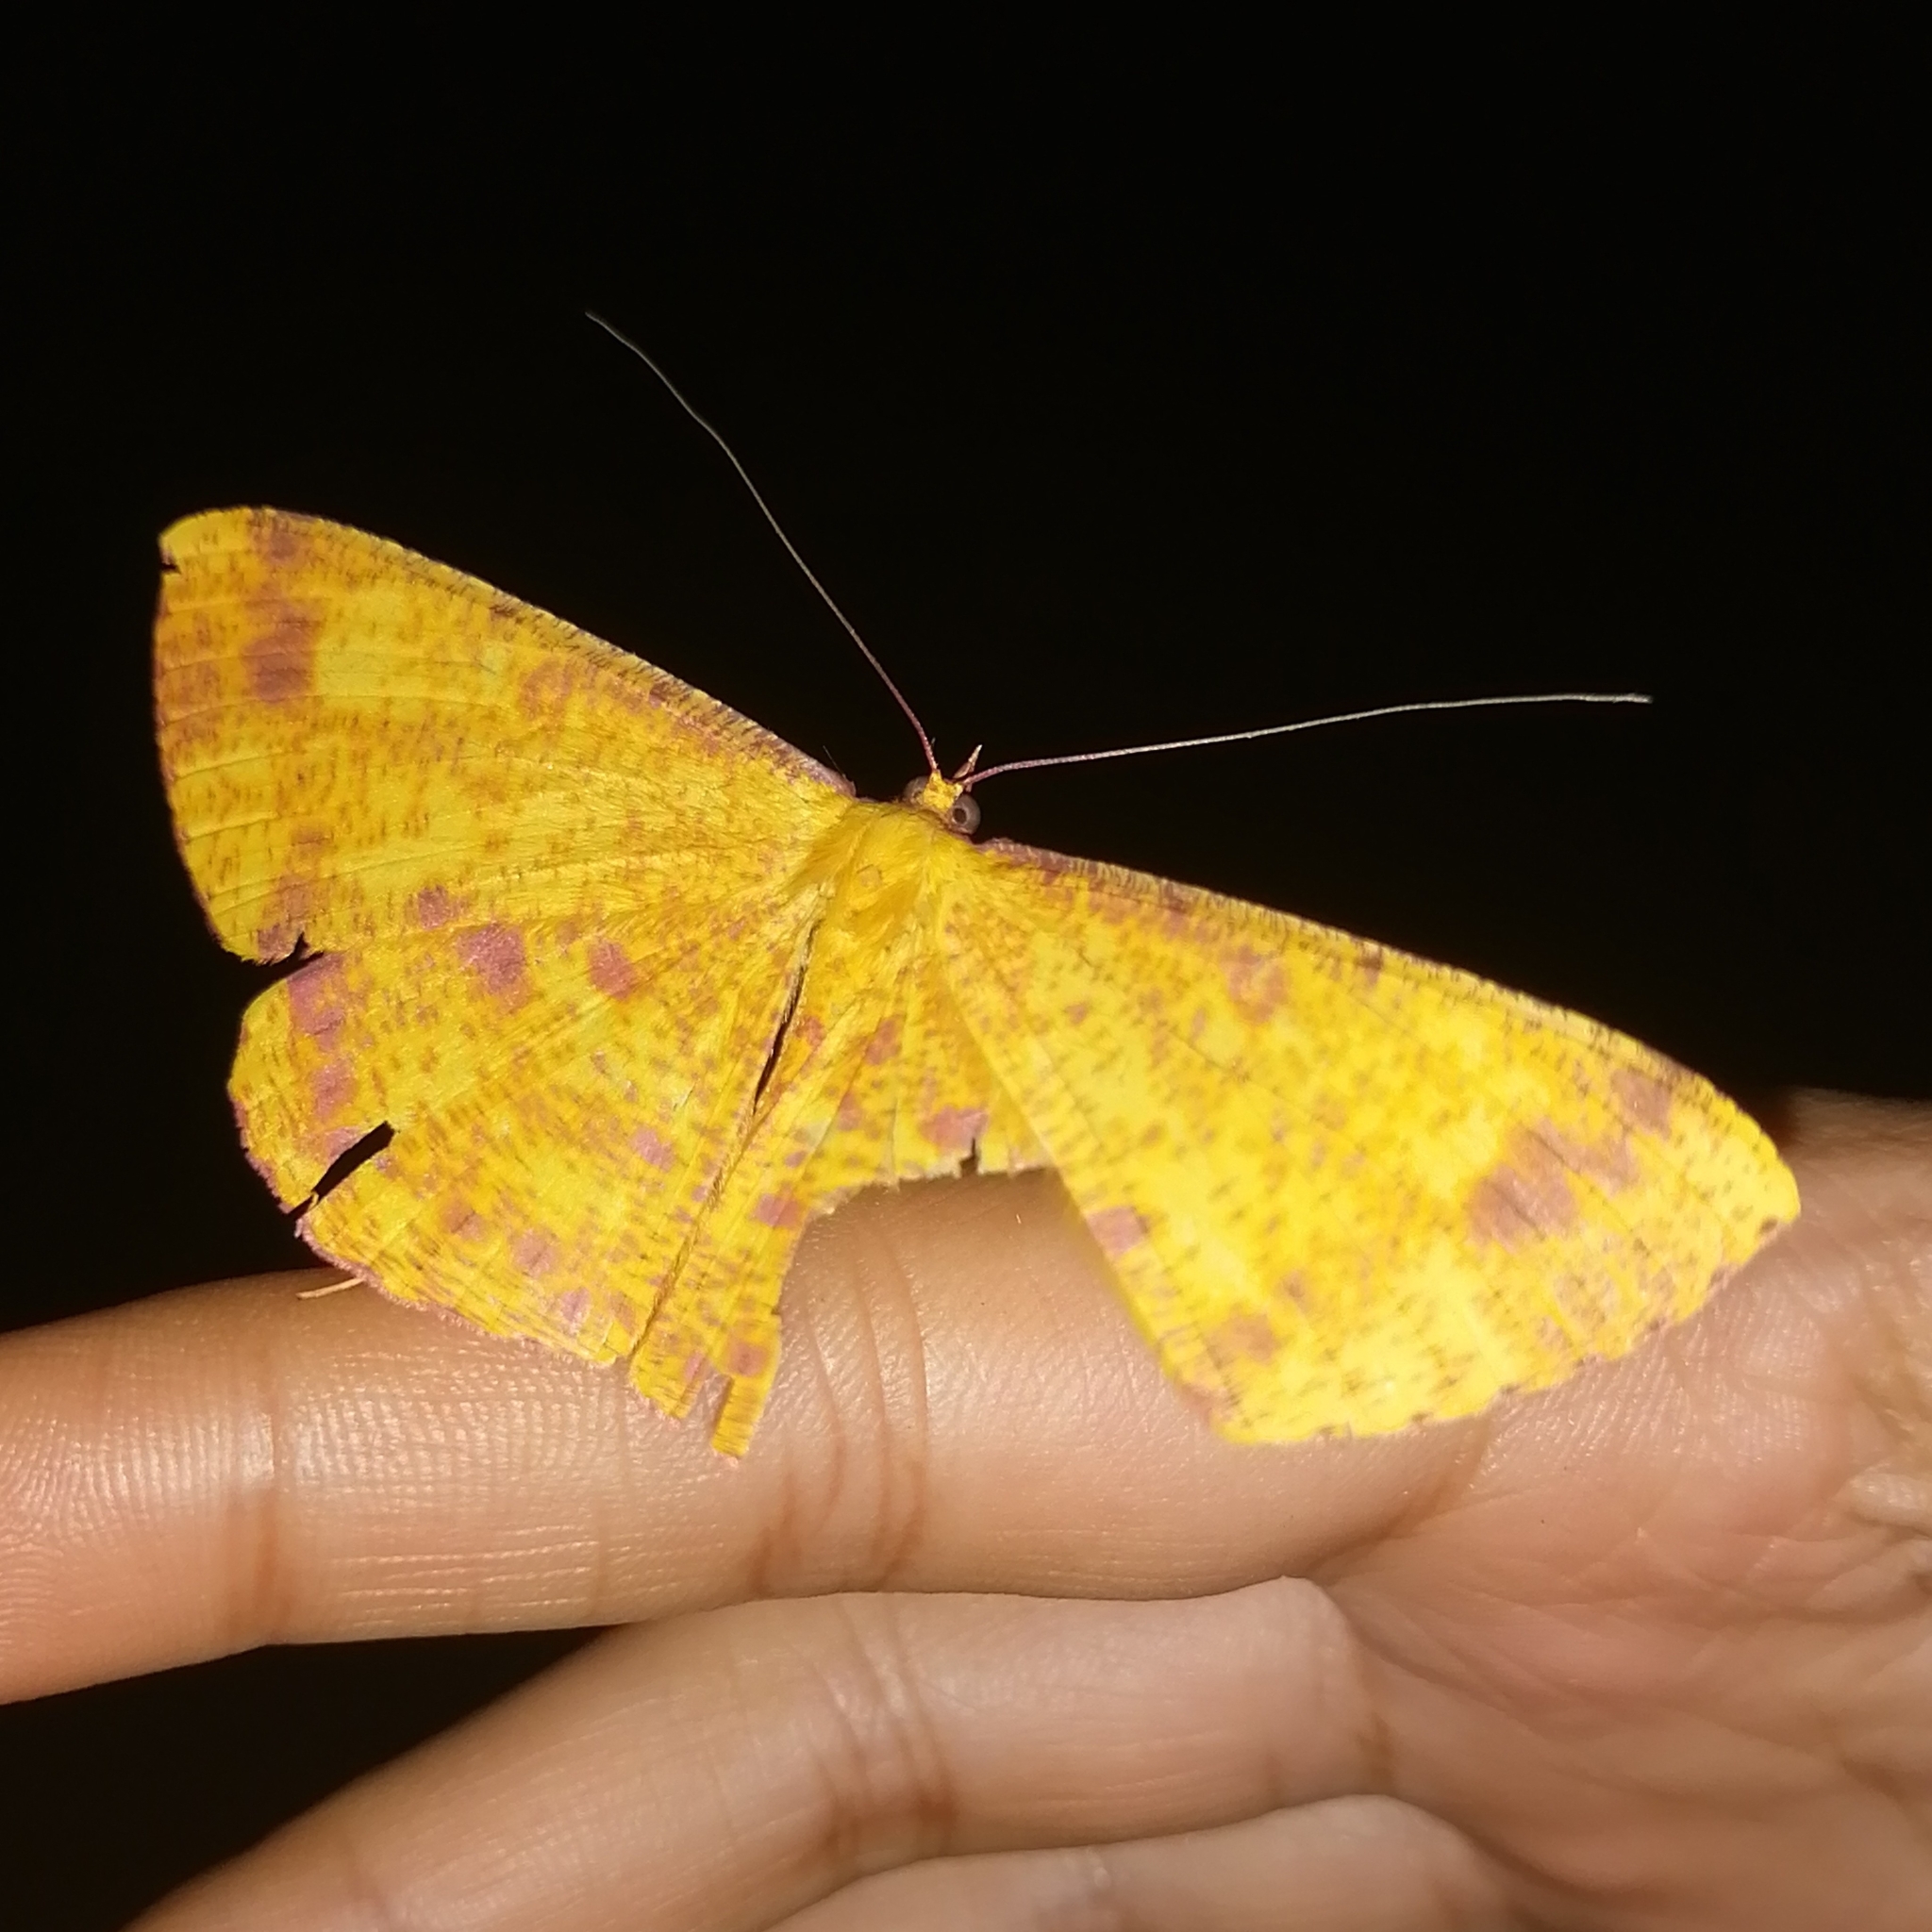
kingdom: Animalia
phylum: Arthropoda
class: Insecta
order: Lepidoptera
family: Geometridae
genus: Eumelea
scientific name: Eumelea ludovicata
